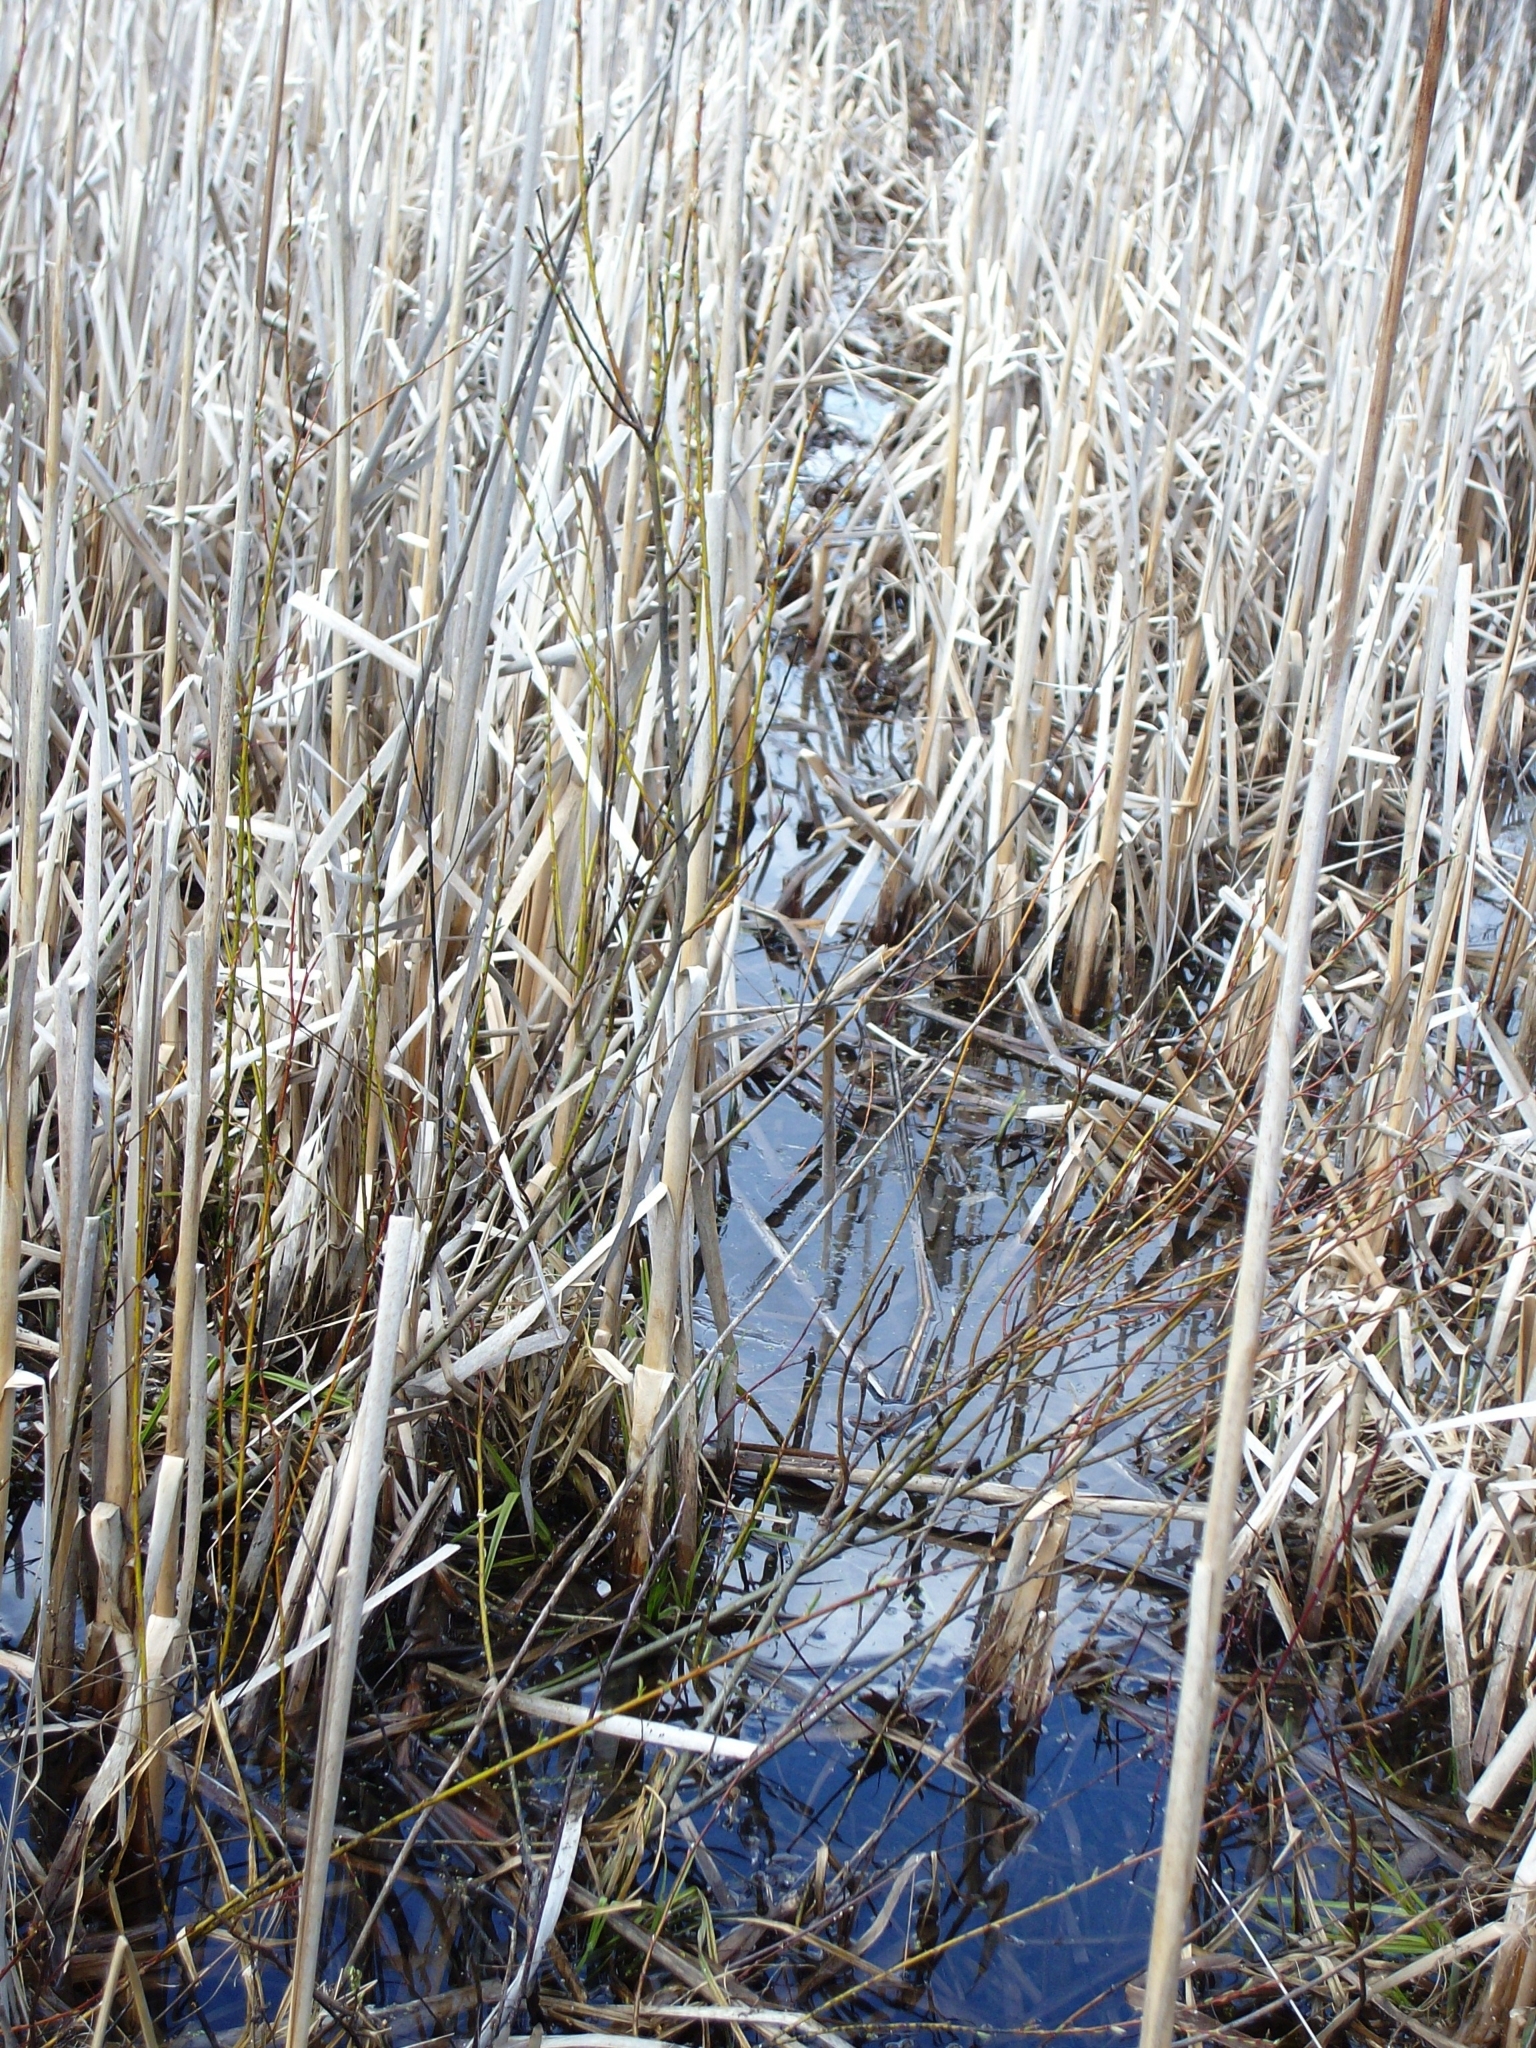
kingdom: Animalia
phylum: Chordata
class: Mammalia
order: Artiodactyla
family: Cervidae
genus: Odocoileus
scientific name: Odocoileus virginianus
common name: White-tailed deer
